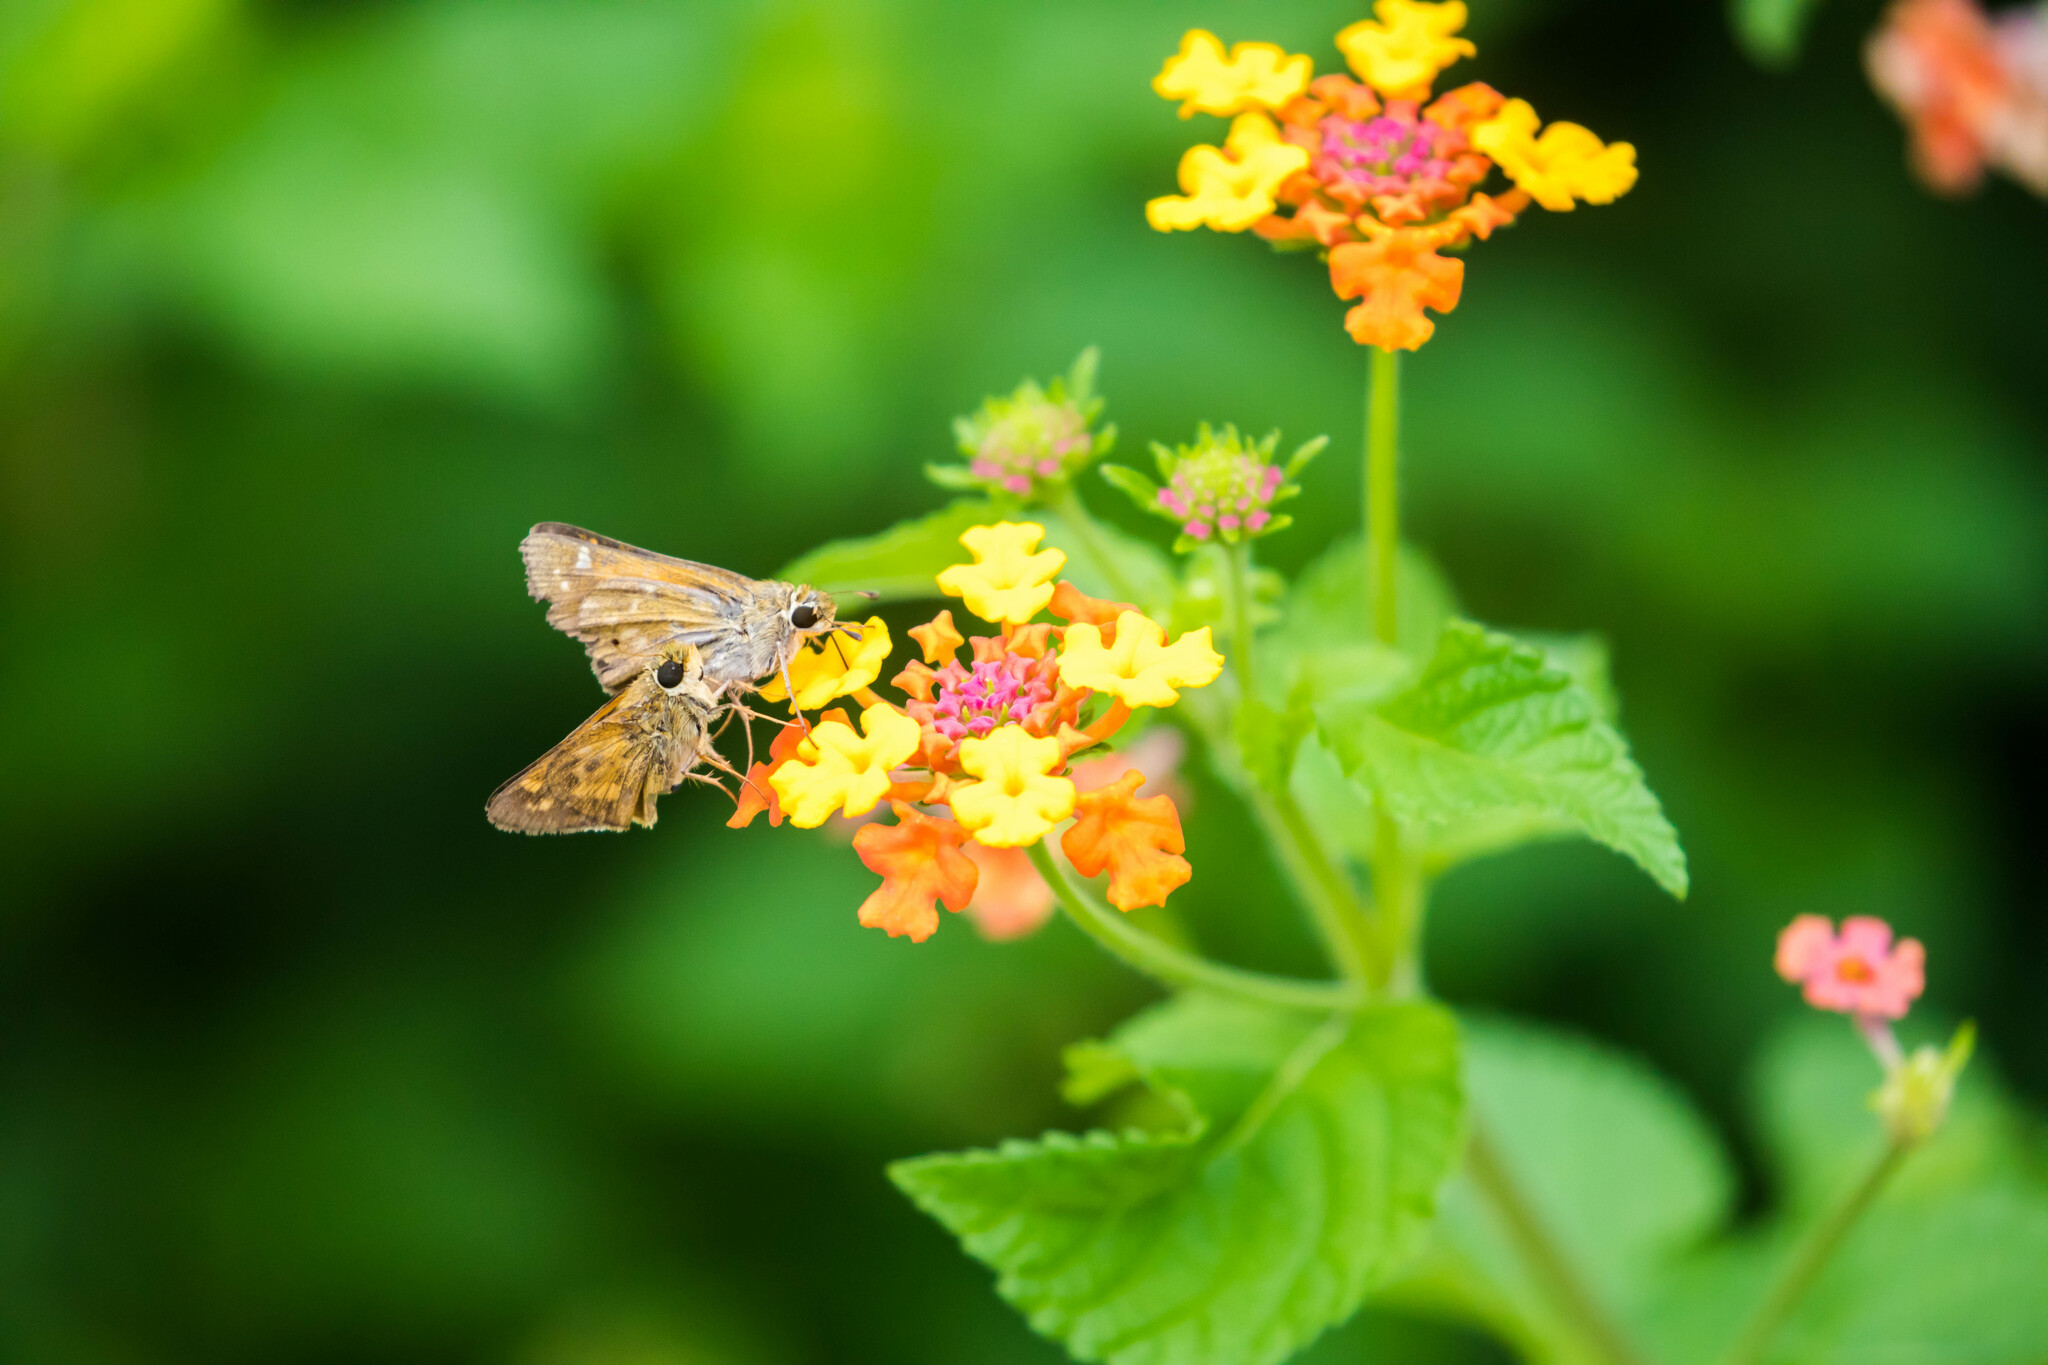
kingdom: Animalia
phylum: Arthropoda
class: Insecta
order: Lepidoptera
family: Hesperiidae
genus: Atalopedes
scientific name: Atalopedes
